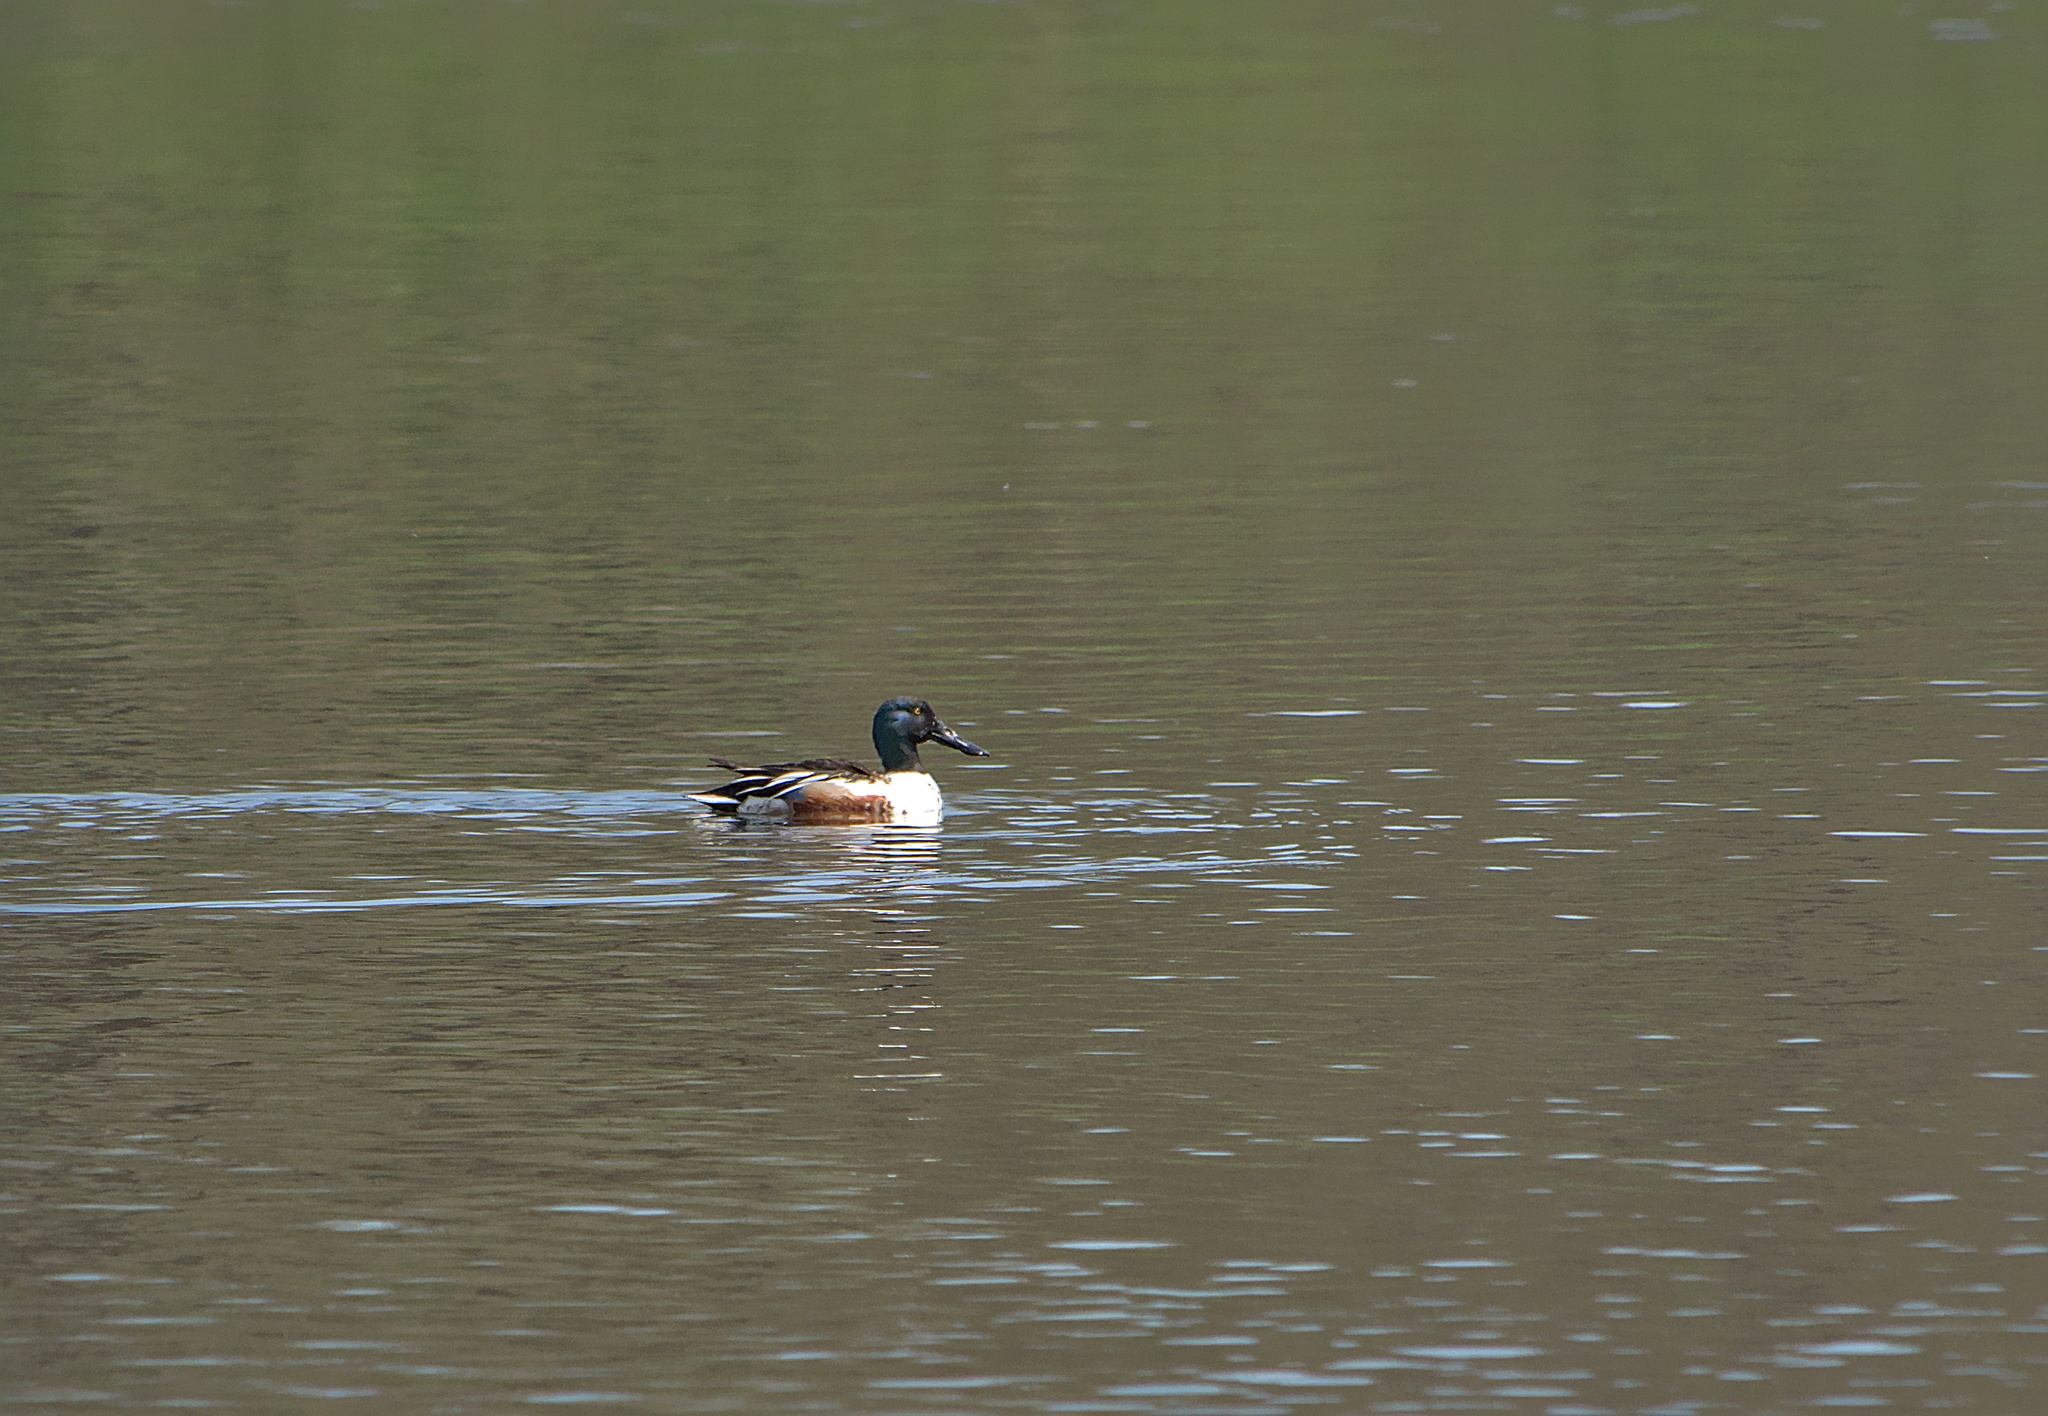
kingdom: Animalia
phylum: Chordata
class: Aves
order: Anseriformes
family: Anatidae
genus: Spatula
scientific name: Spatula clypeata
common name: Northern shoveler
